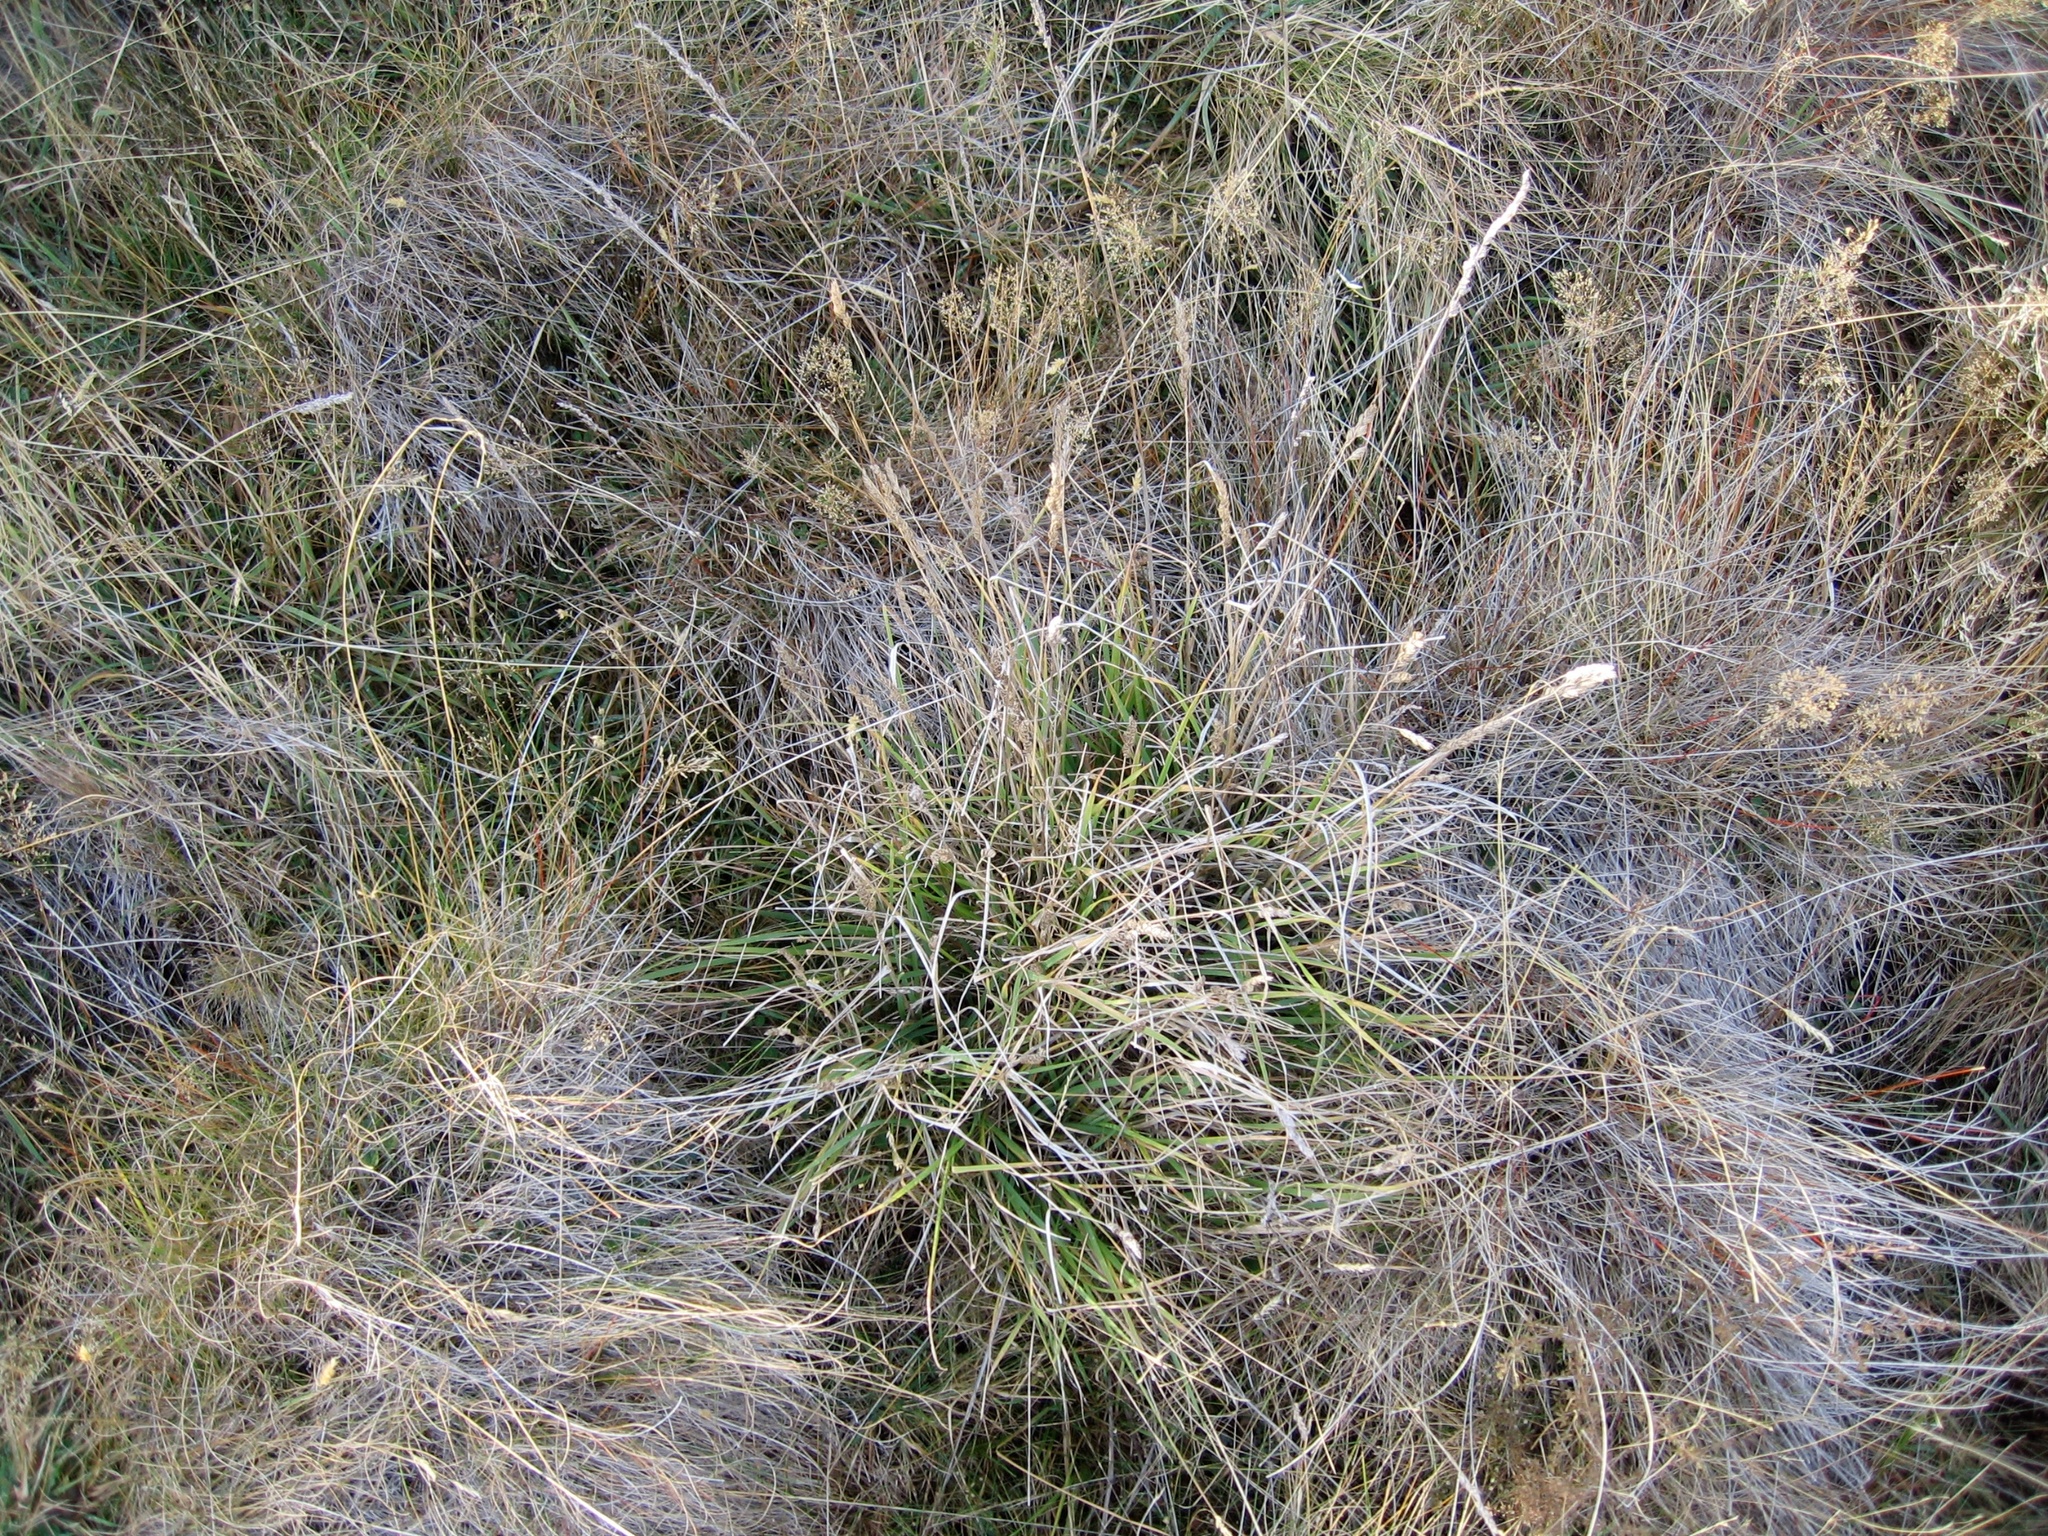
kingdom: Plantae
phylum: Tracheophyta
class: Liliopsida
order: Poales
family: Poaceae
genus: Dactylis
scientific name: Dactylis glomerata
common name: Orchardgrass
